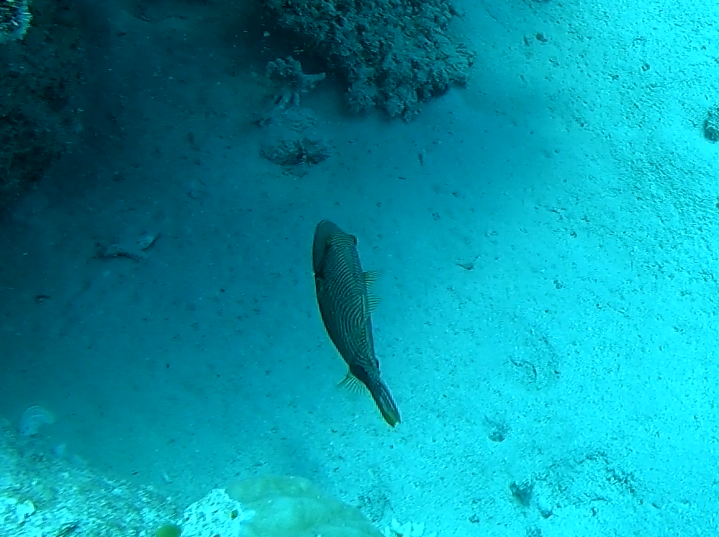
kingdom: Animalia
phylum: Chordata
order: Tetraodontiformes
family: Balistidae
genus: Balistapus
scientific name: Balistapus undulatus
